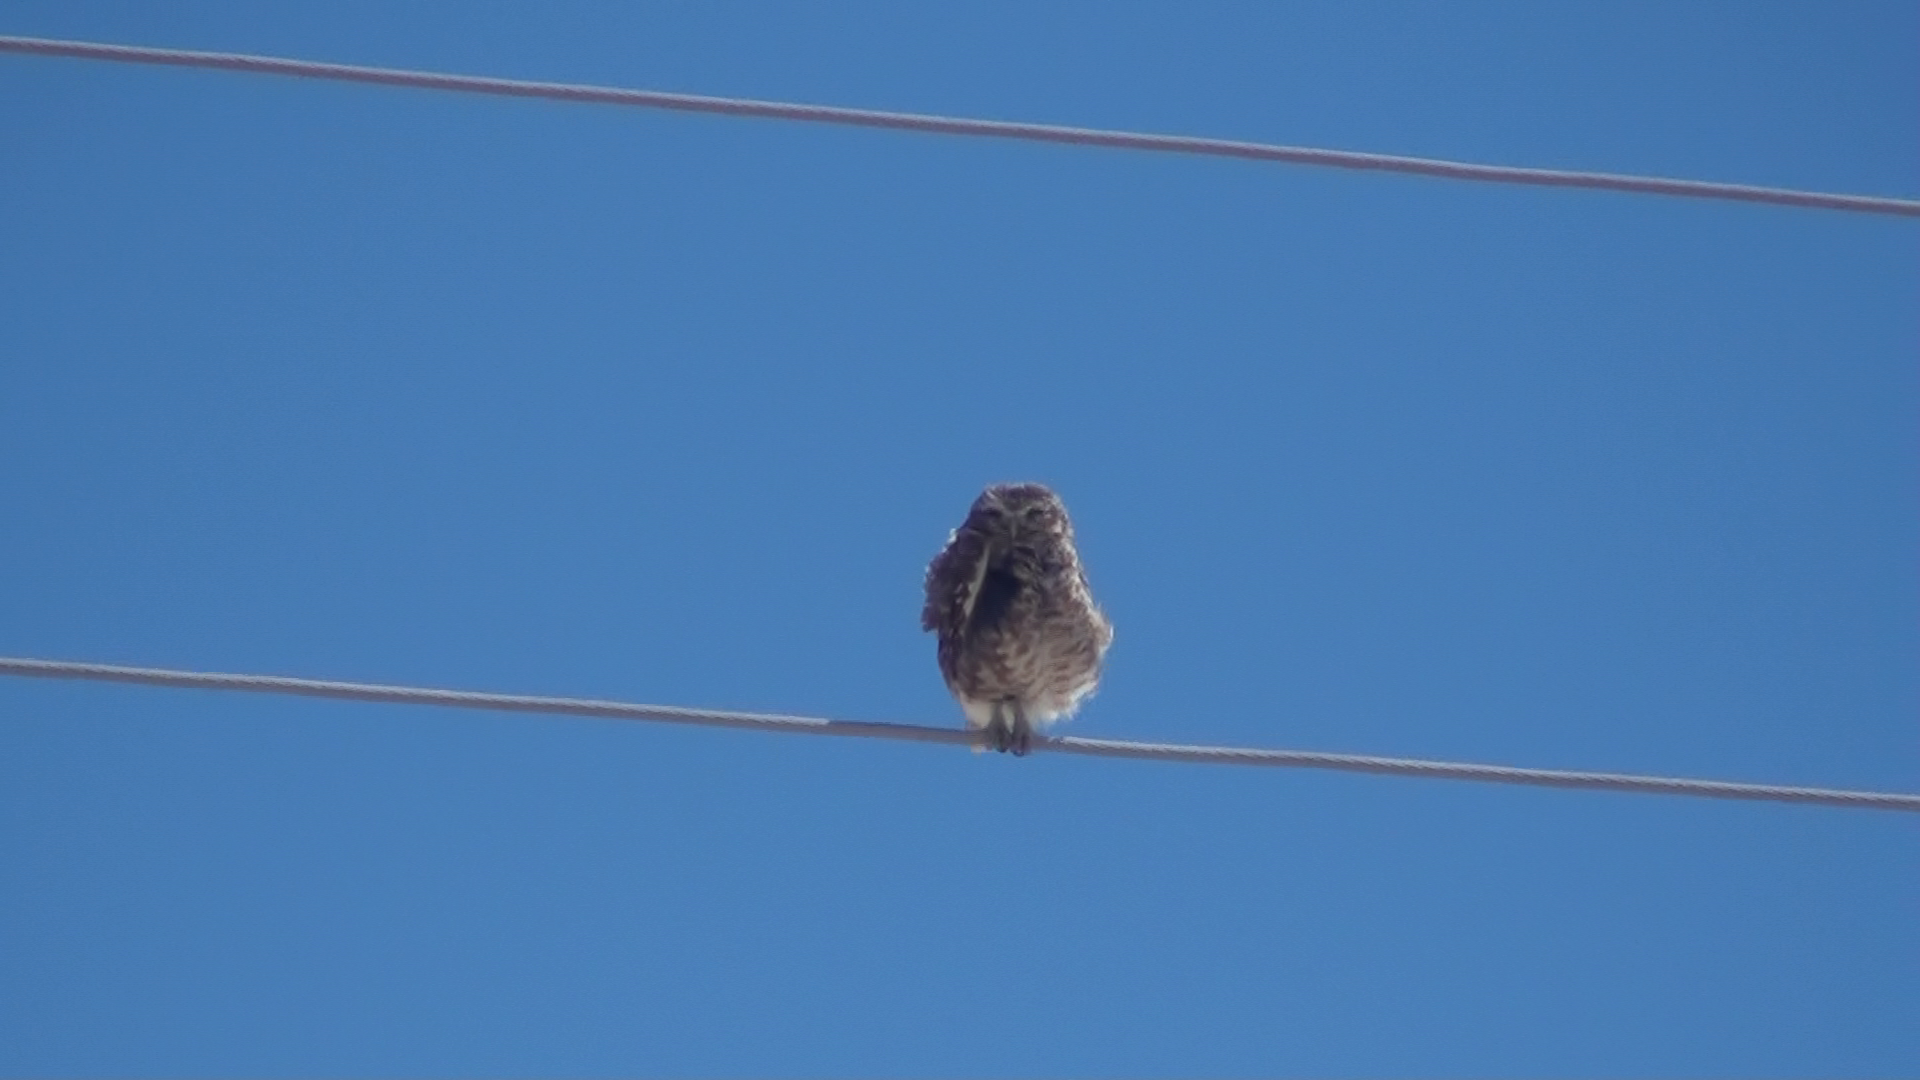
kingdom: Animalia
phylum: Chordata
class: Aves
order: Strigiformes
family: Strigidae
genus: Athene
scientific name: Athene cunicularia
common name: Burrowing owl
